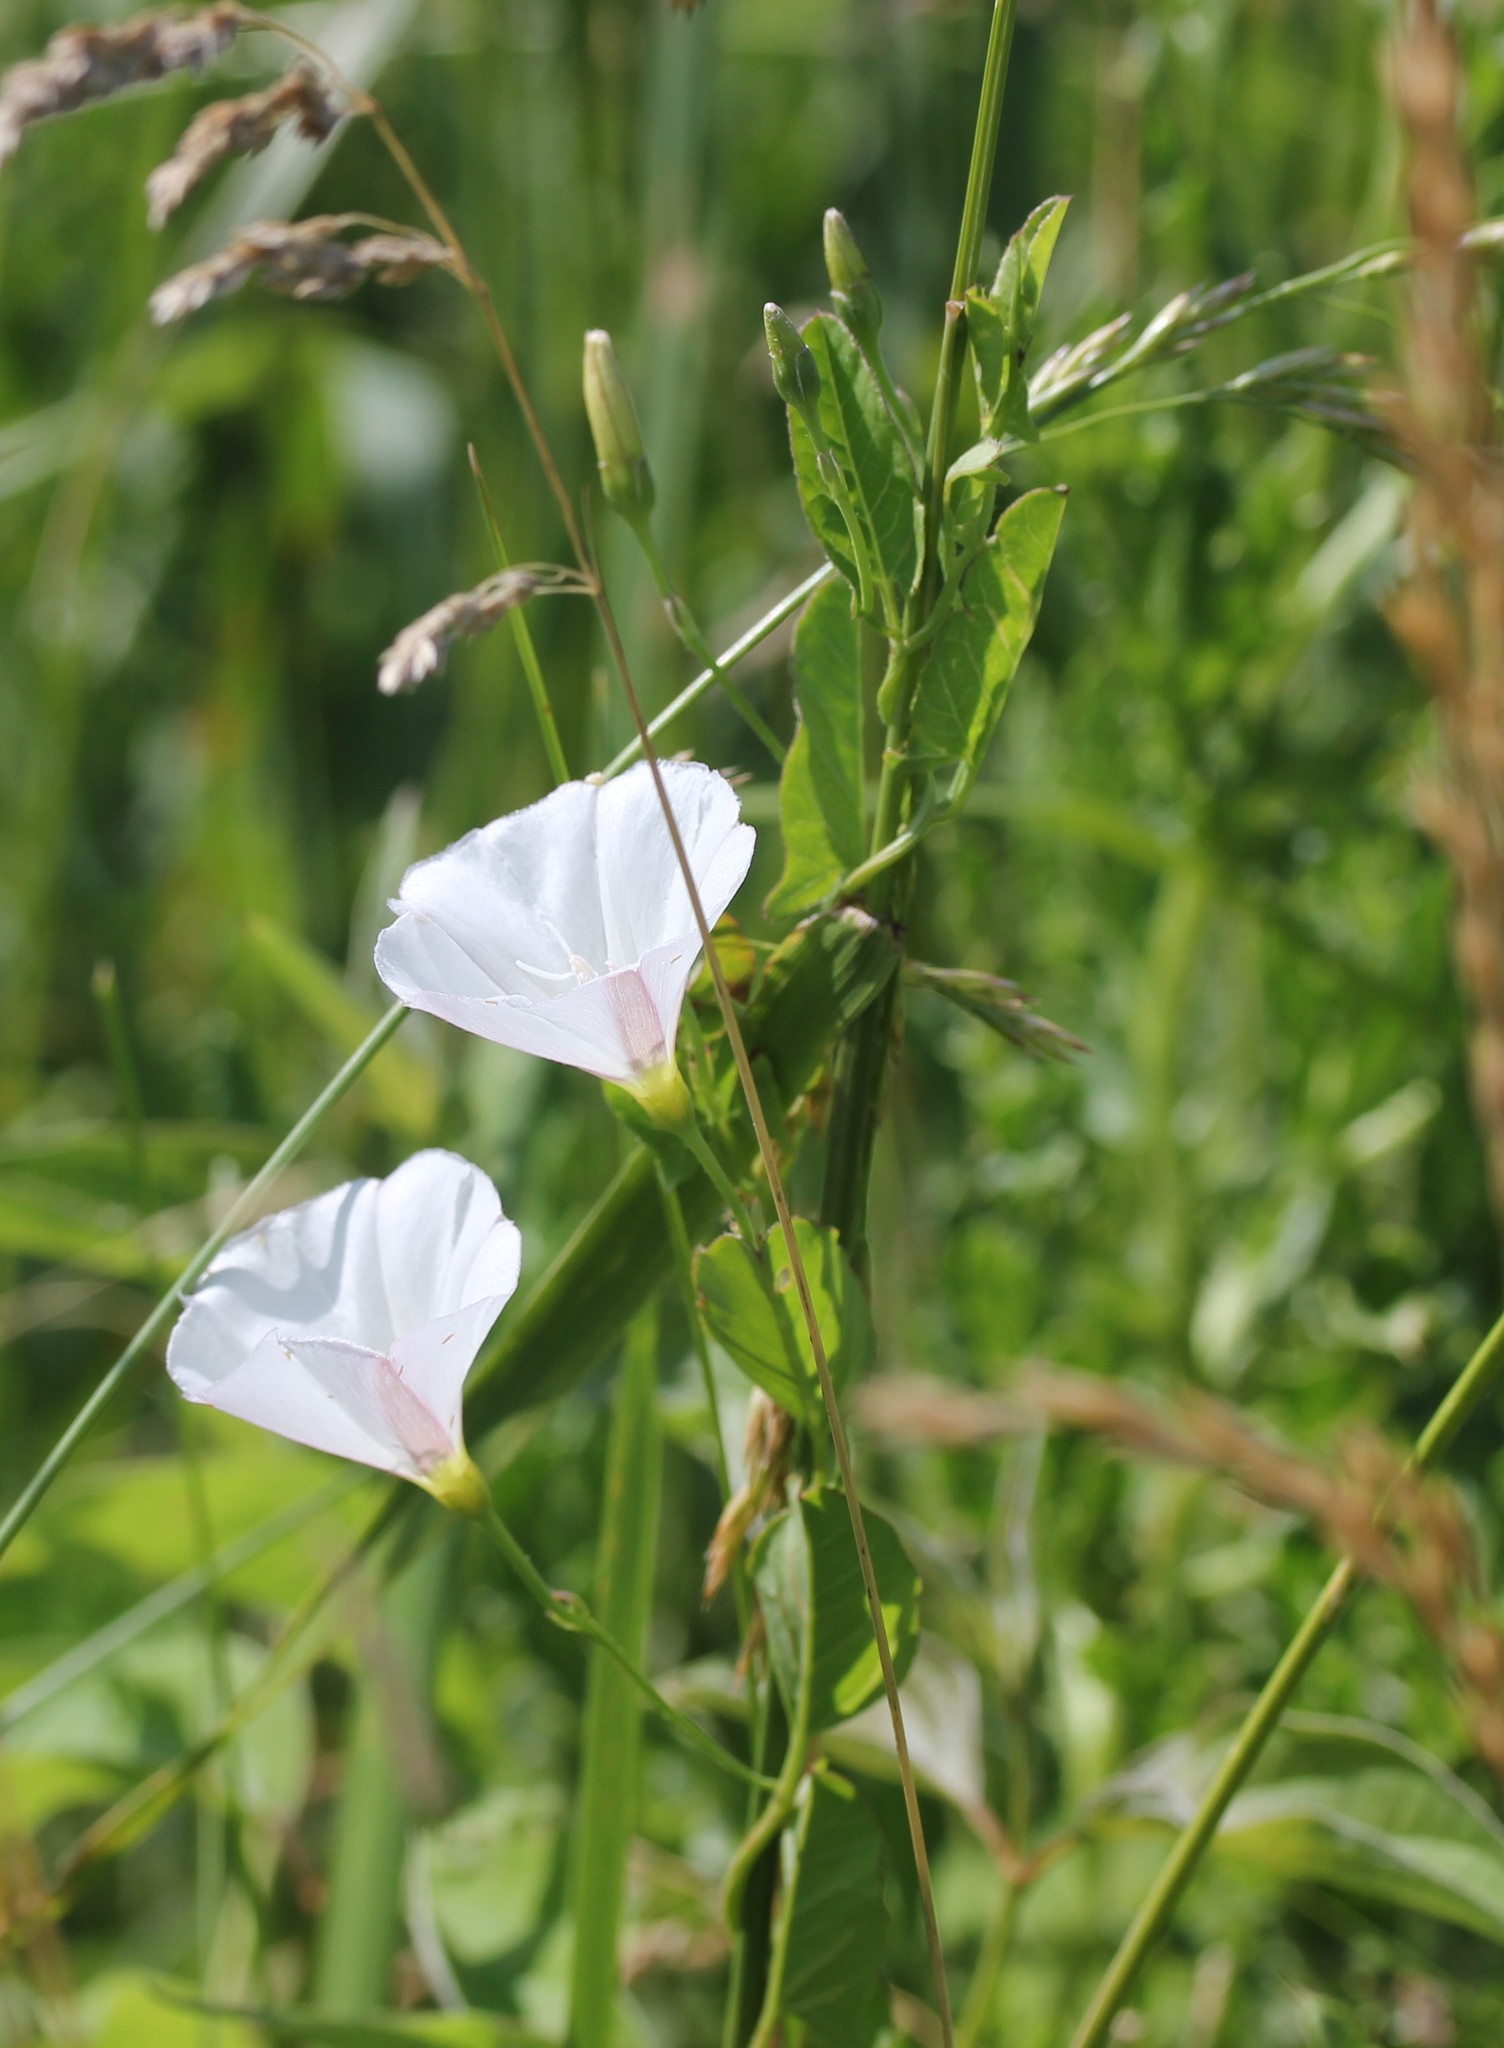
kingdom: Plantae
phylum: Tracheophyta
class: Magnoliopsida
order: Solanales
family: Convolvulaceae
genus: Convolvulus
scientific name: Convolvulus arvensis
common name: Field bindweed
